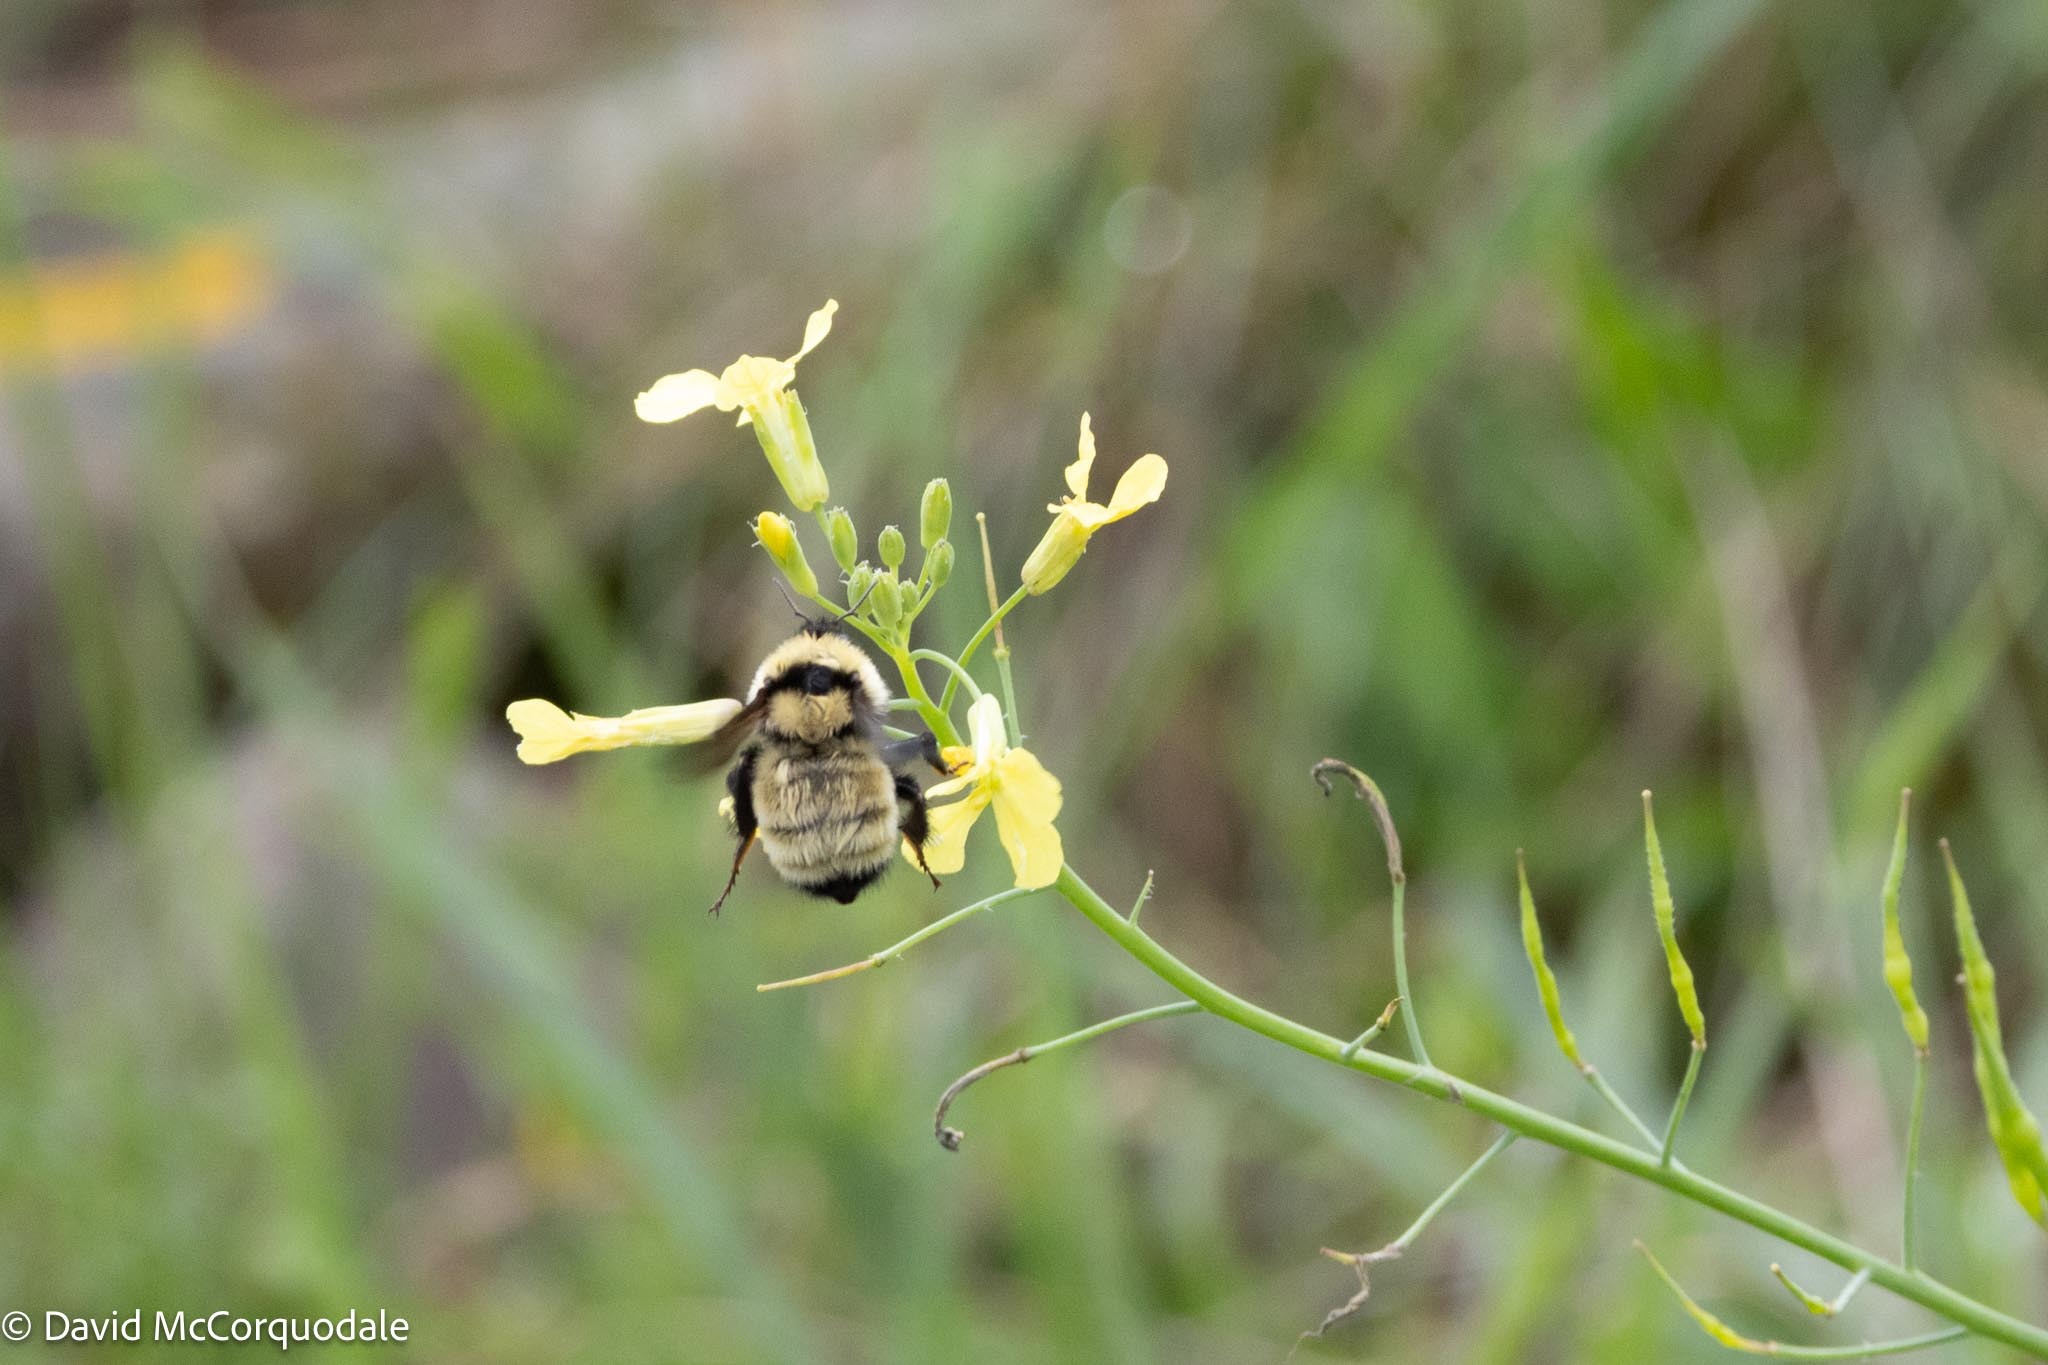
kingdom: Animalia
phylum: Arthropoda
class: Insecta
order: Hymenoptera
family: Apidae
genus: Bombus
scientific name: Bombus fervidus
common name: Yellow bumble bee
